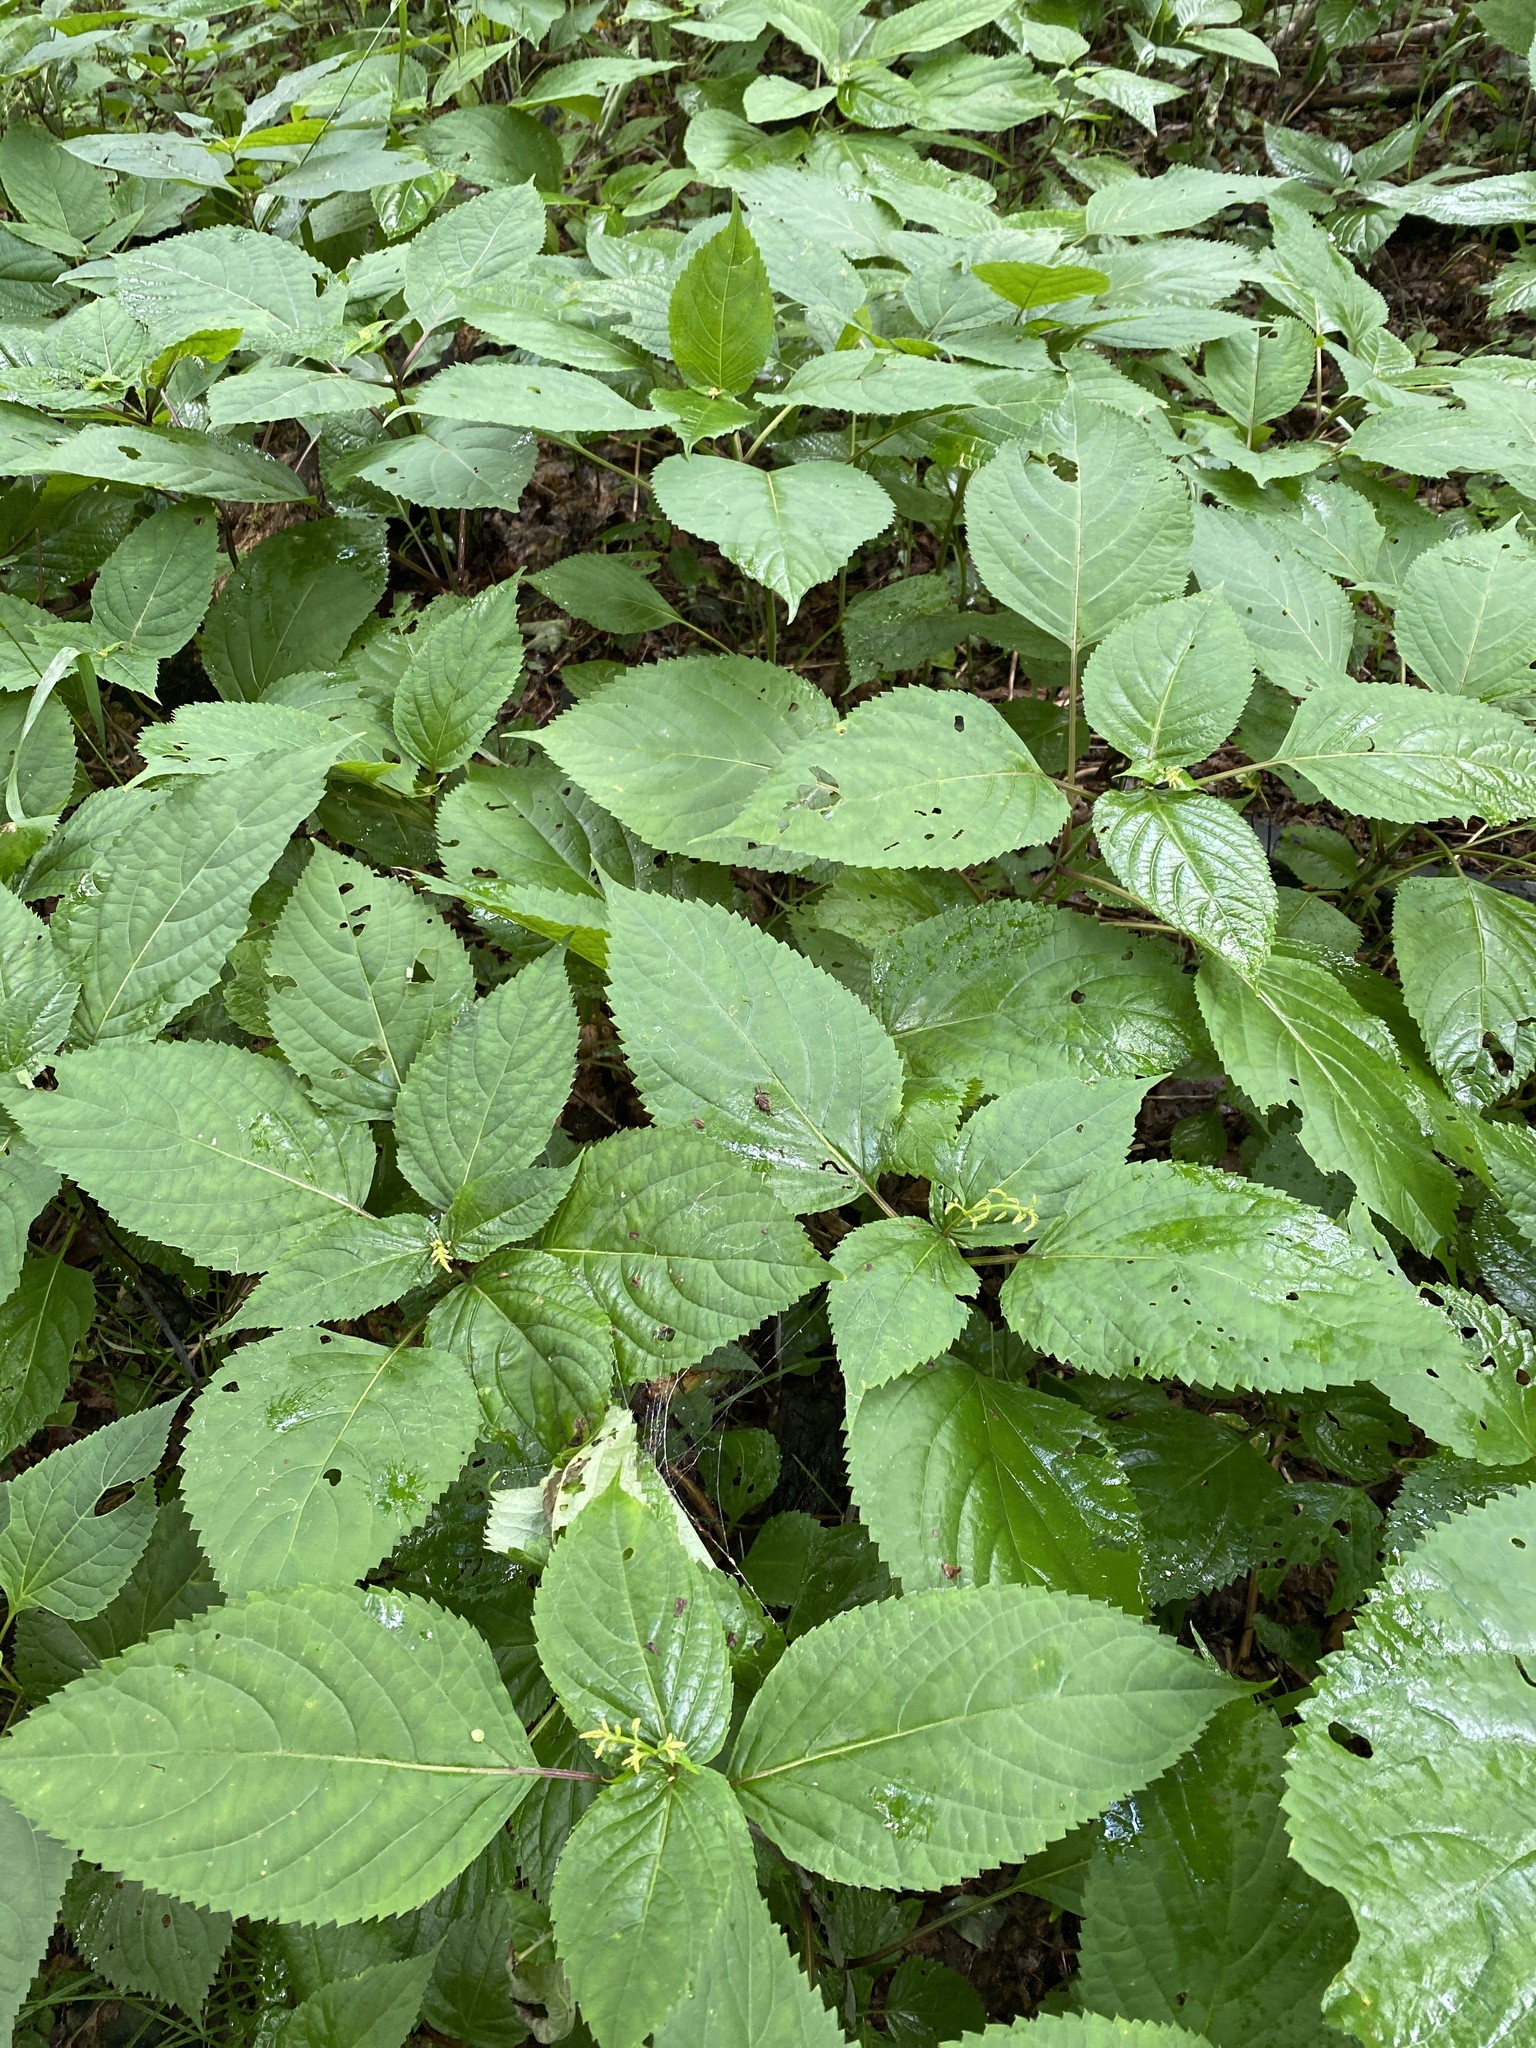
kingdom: Plantae
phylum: Tracheophyta
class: Magnoliopsida
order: Lamiales
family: Lamiaceae
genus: Collinsonia
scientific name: Collinsonia canadensis
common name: Northern horsebalm
